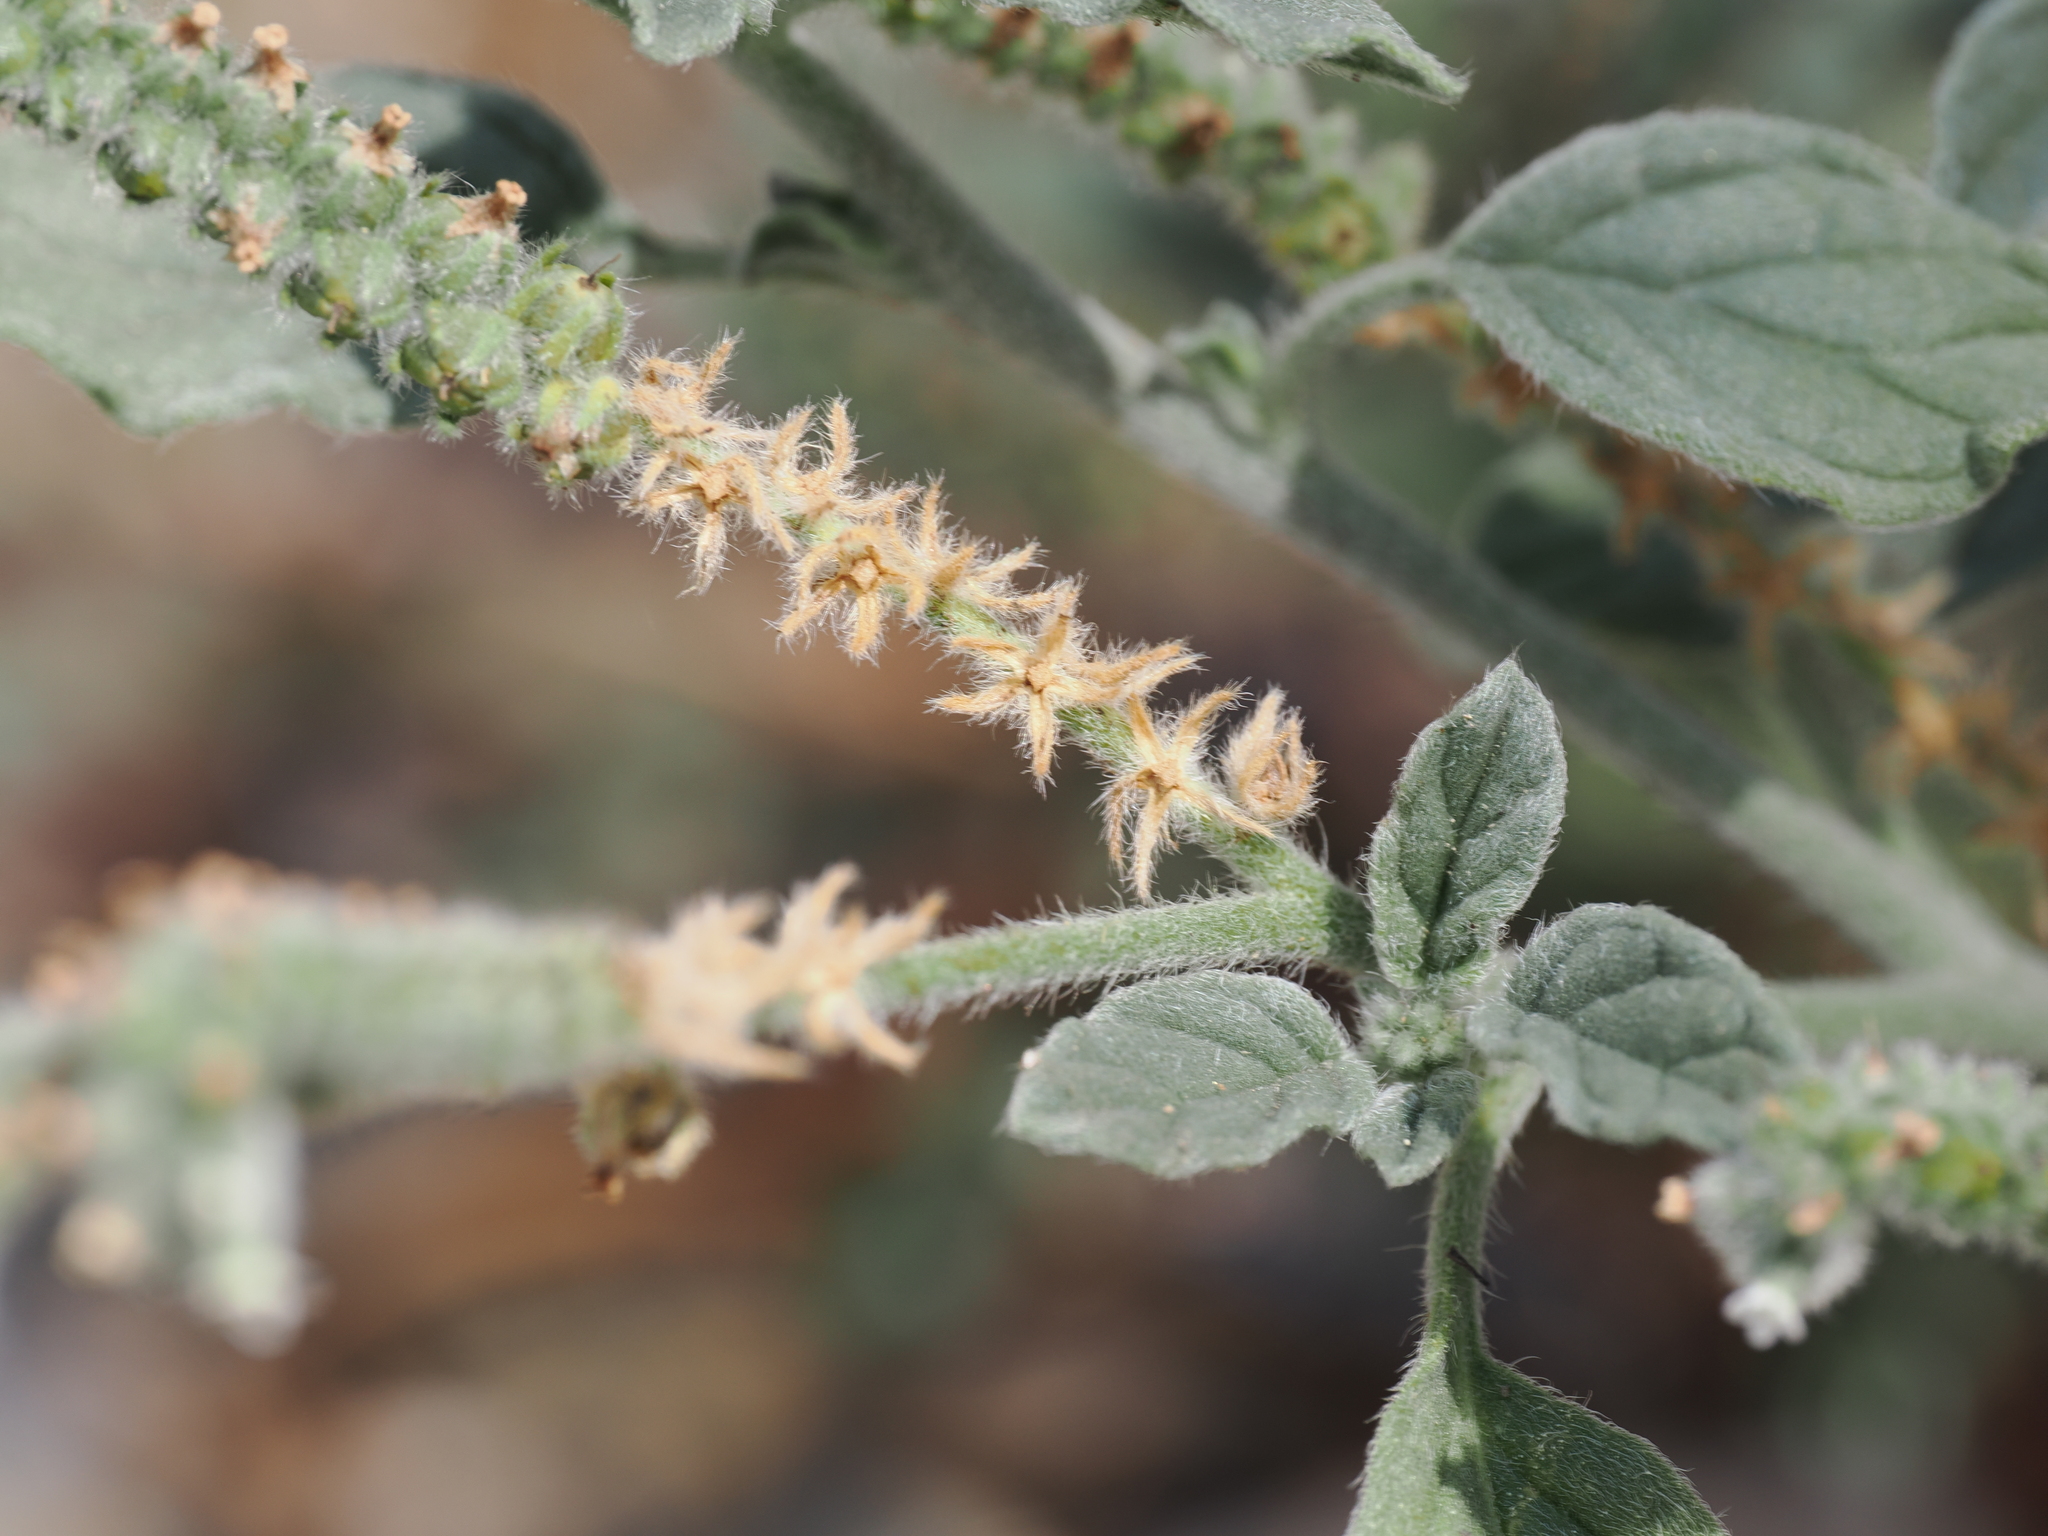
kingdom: Plantae
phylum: Tracheophyta
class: Magnoliopsida
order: Boraginales
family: Heliotropiaceae
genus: Heliotropium
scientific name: Heliotropium europaeum
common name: European heliotrope
